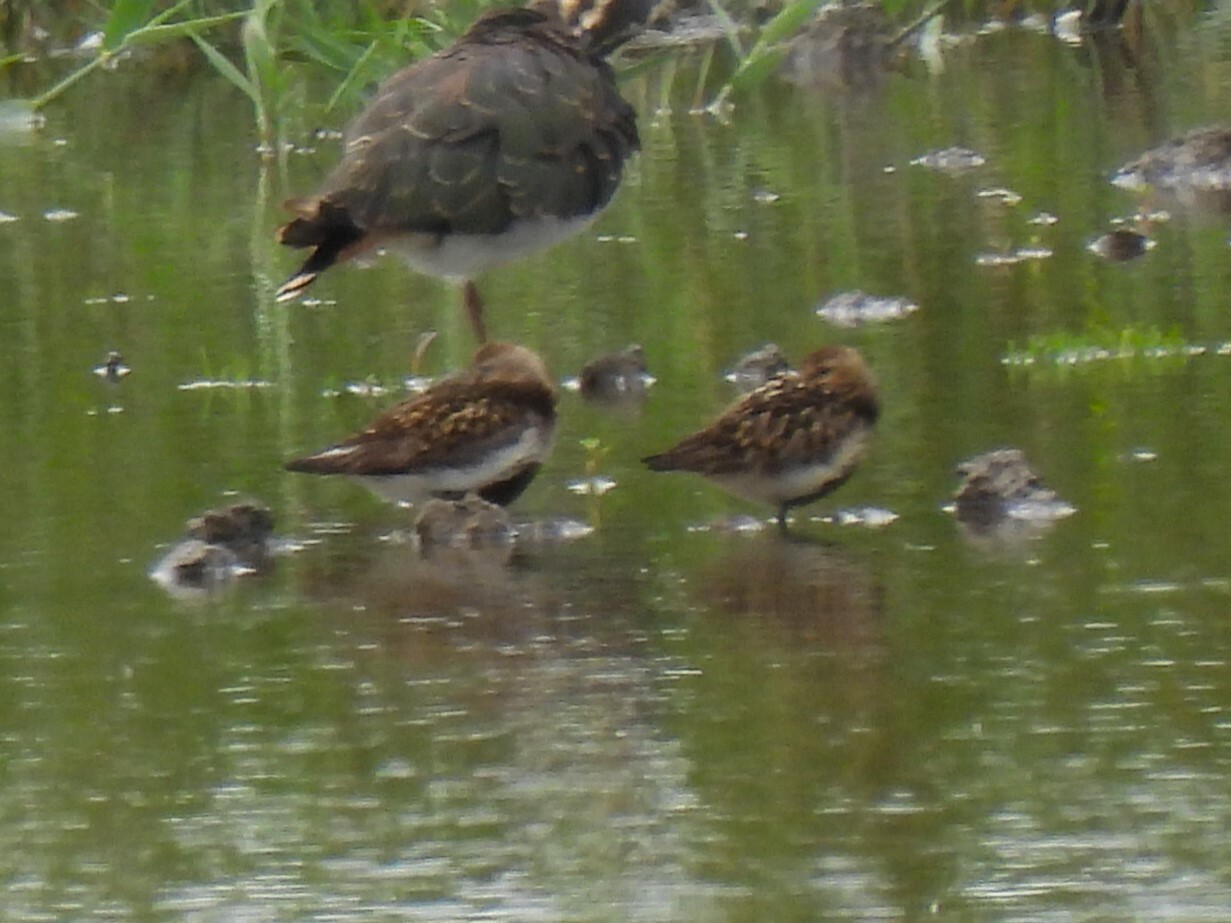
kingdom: Animalia
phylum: Chordata
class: Aves
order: Charadriiformes
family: Scolopacidae
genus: Calidris
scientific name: Calidris alpina
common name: Dunlin
